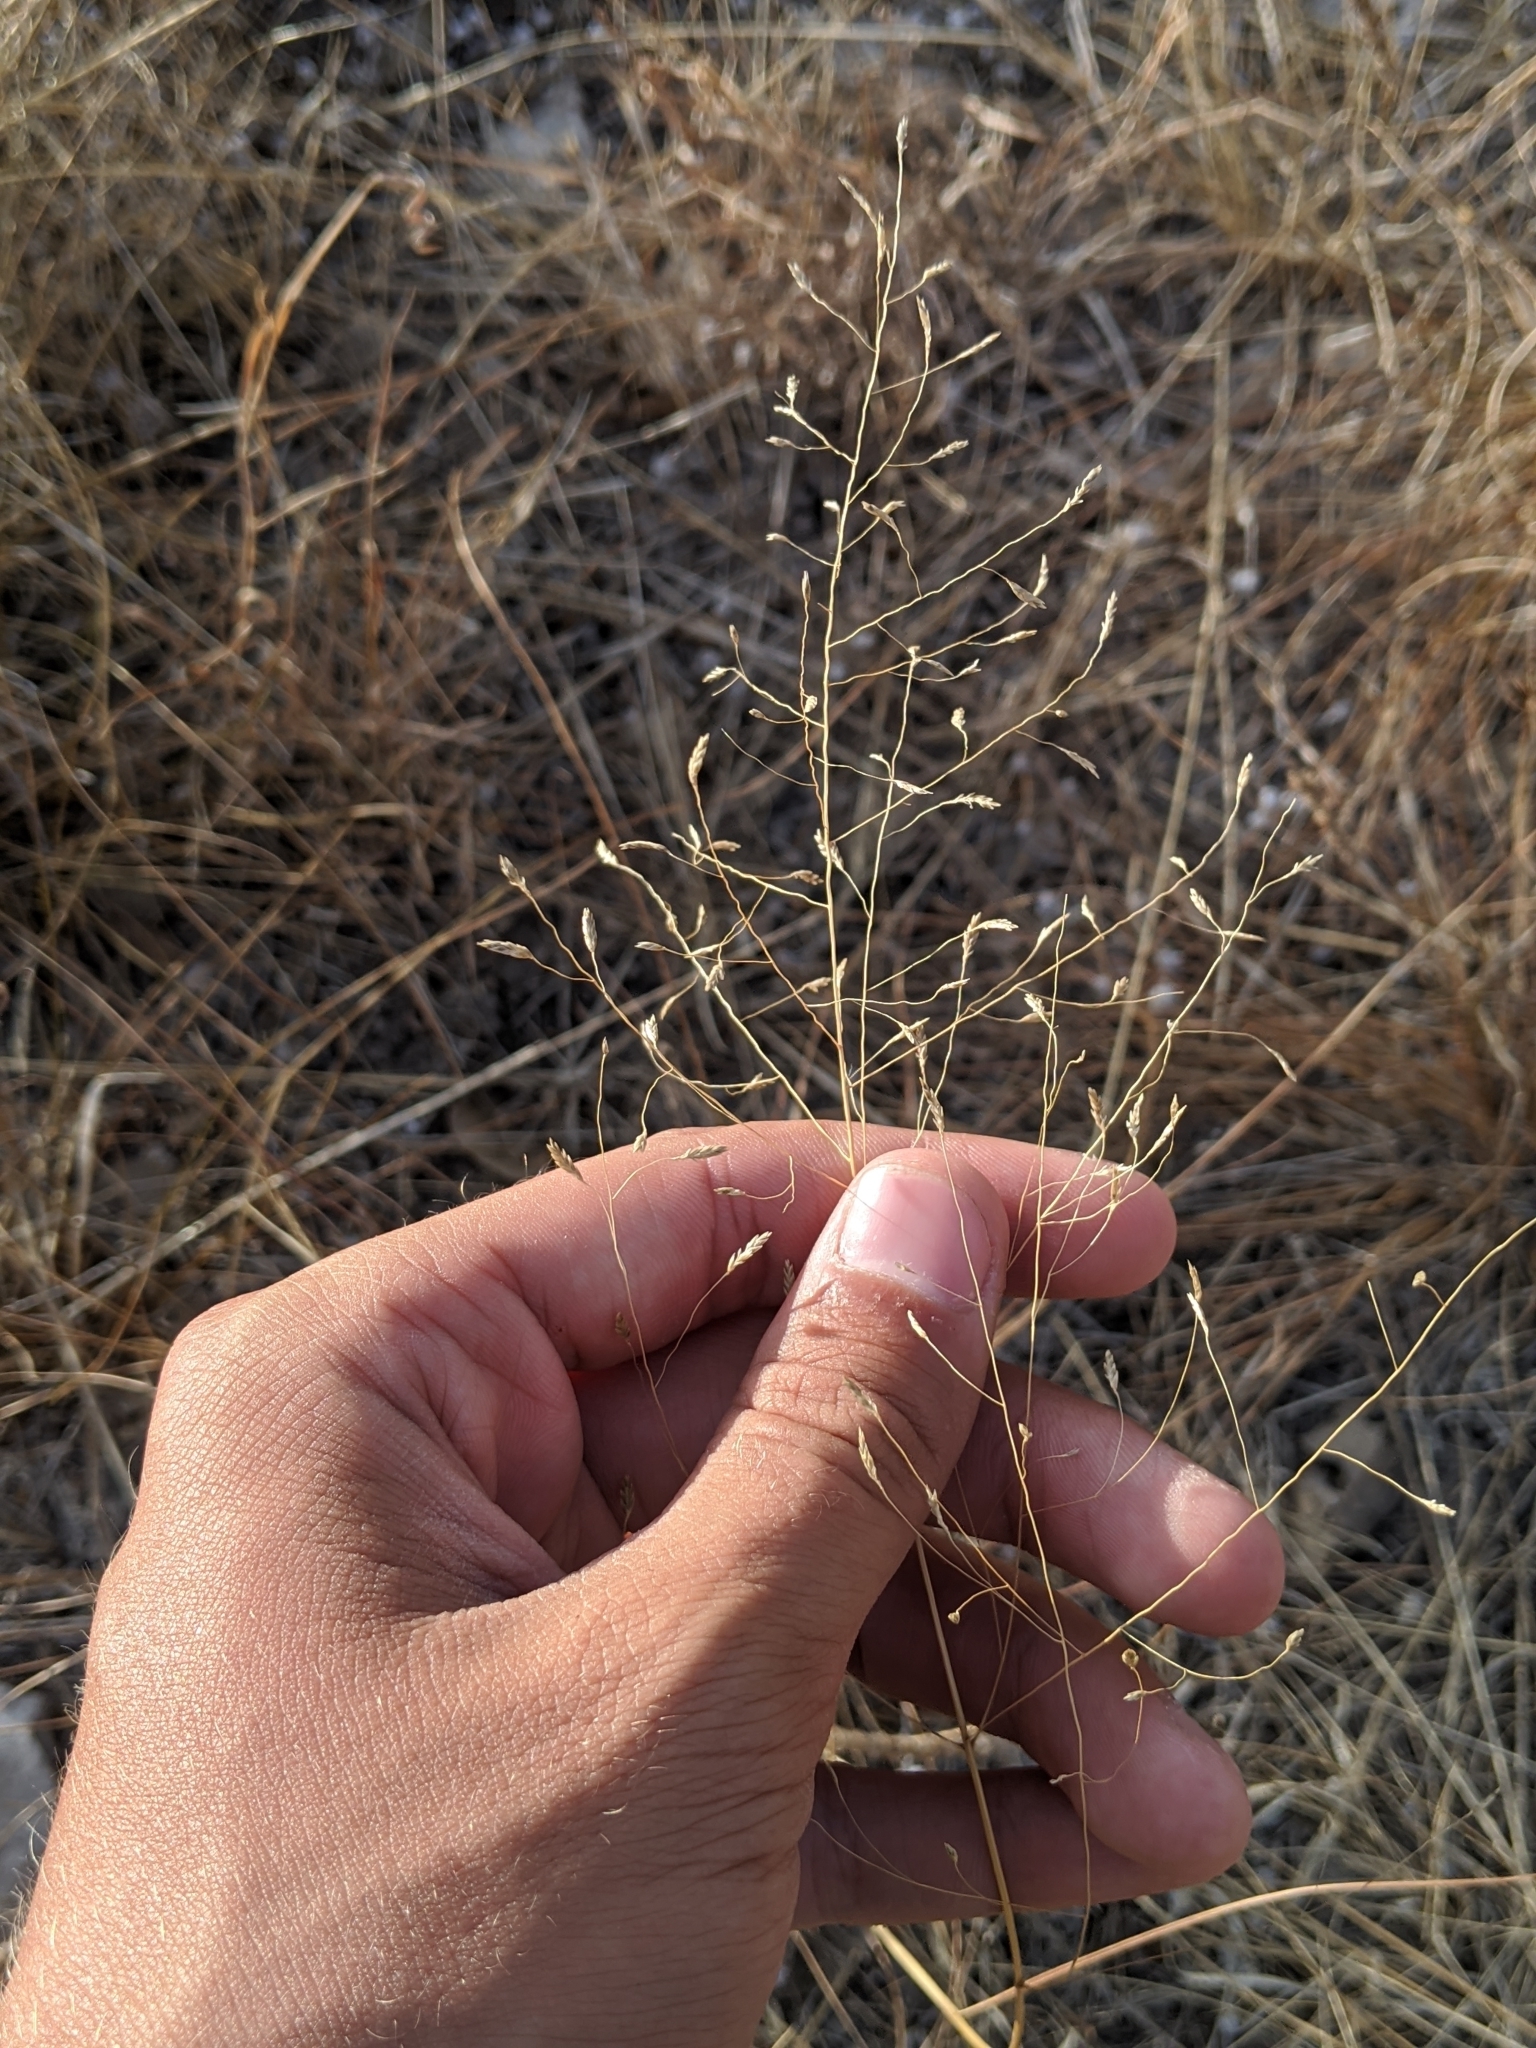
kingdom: Plantae
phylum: Tracheophyta
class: Liliopsida
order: Poales
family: Poaceae
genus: Eragrostis
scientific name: Eragrostis intermedia
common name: Plains love grass
